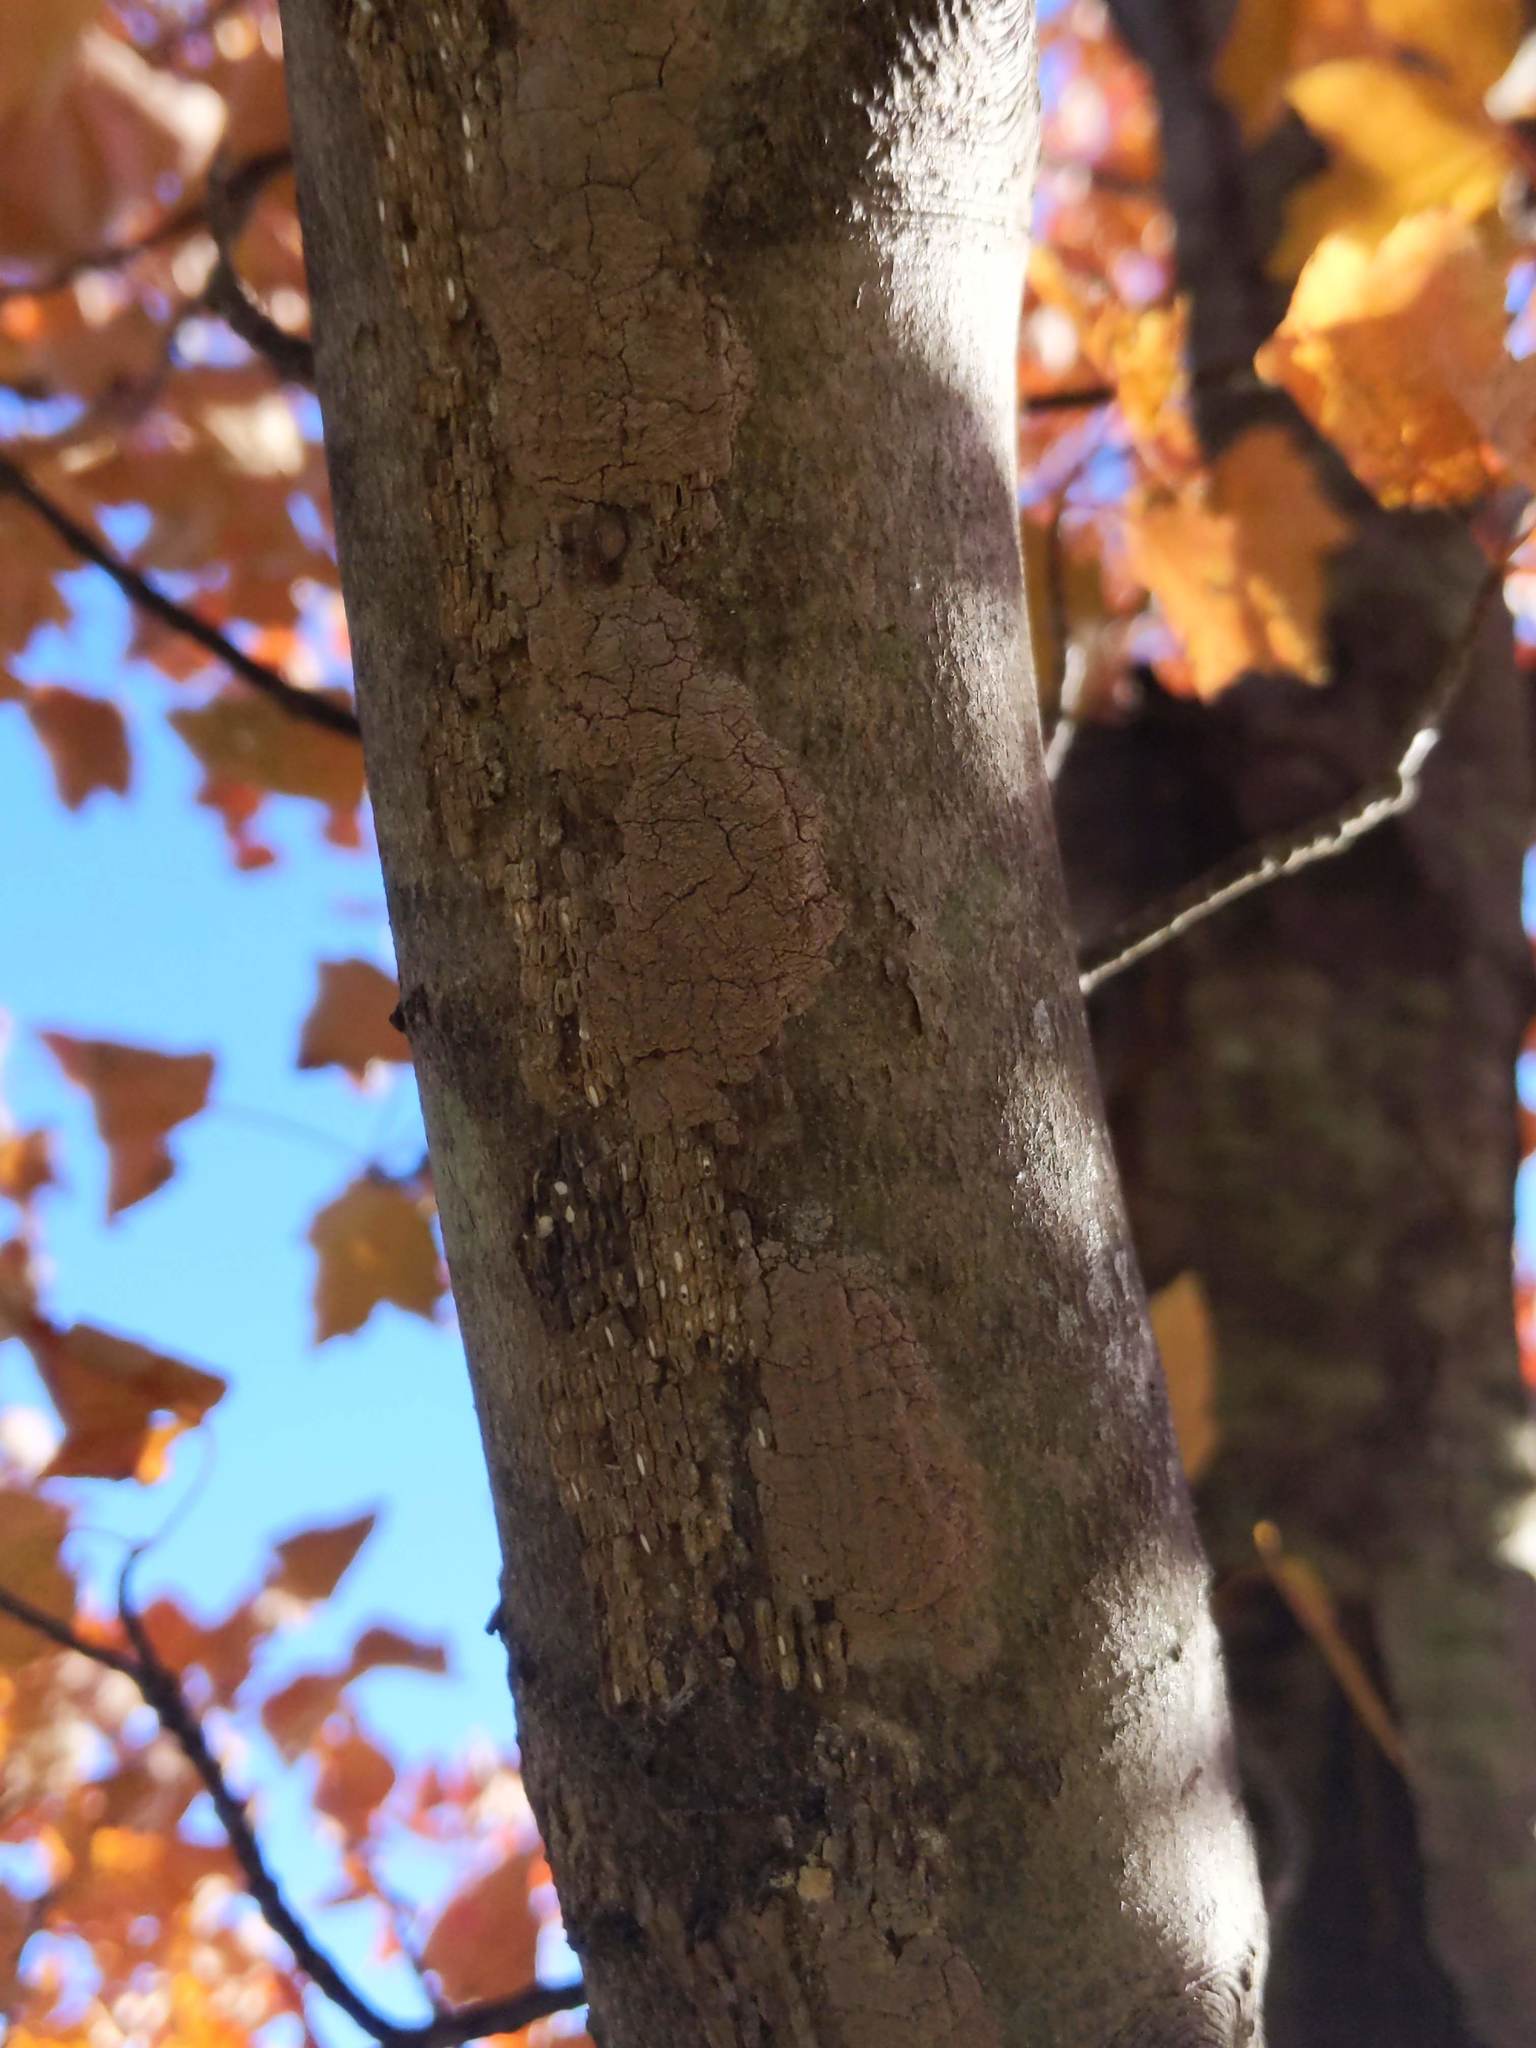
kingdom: Animalia
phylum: Arthropoda
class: Insecta
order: Hemiptera
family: Fulgoridae
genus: Lycorma
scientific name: Lycorma delicatula
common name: Spotted lanternfly
